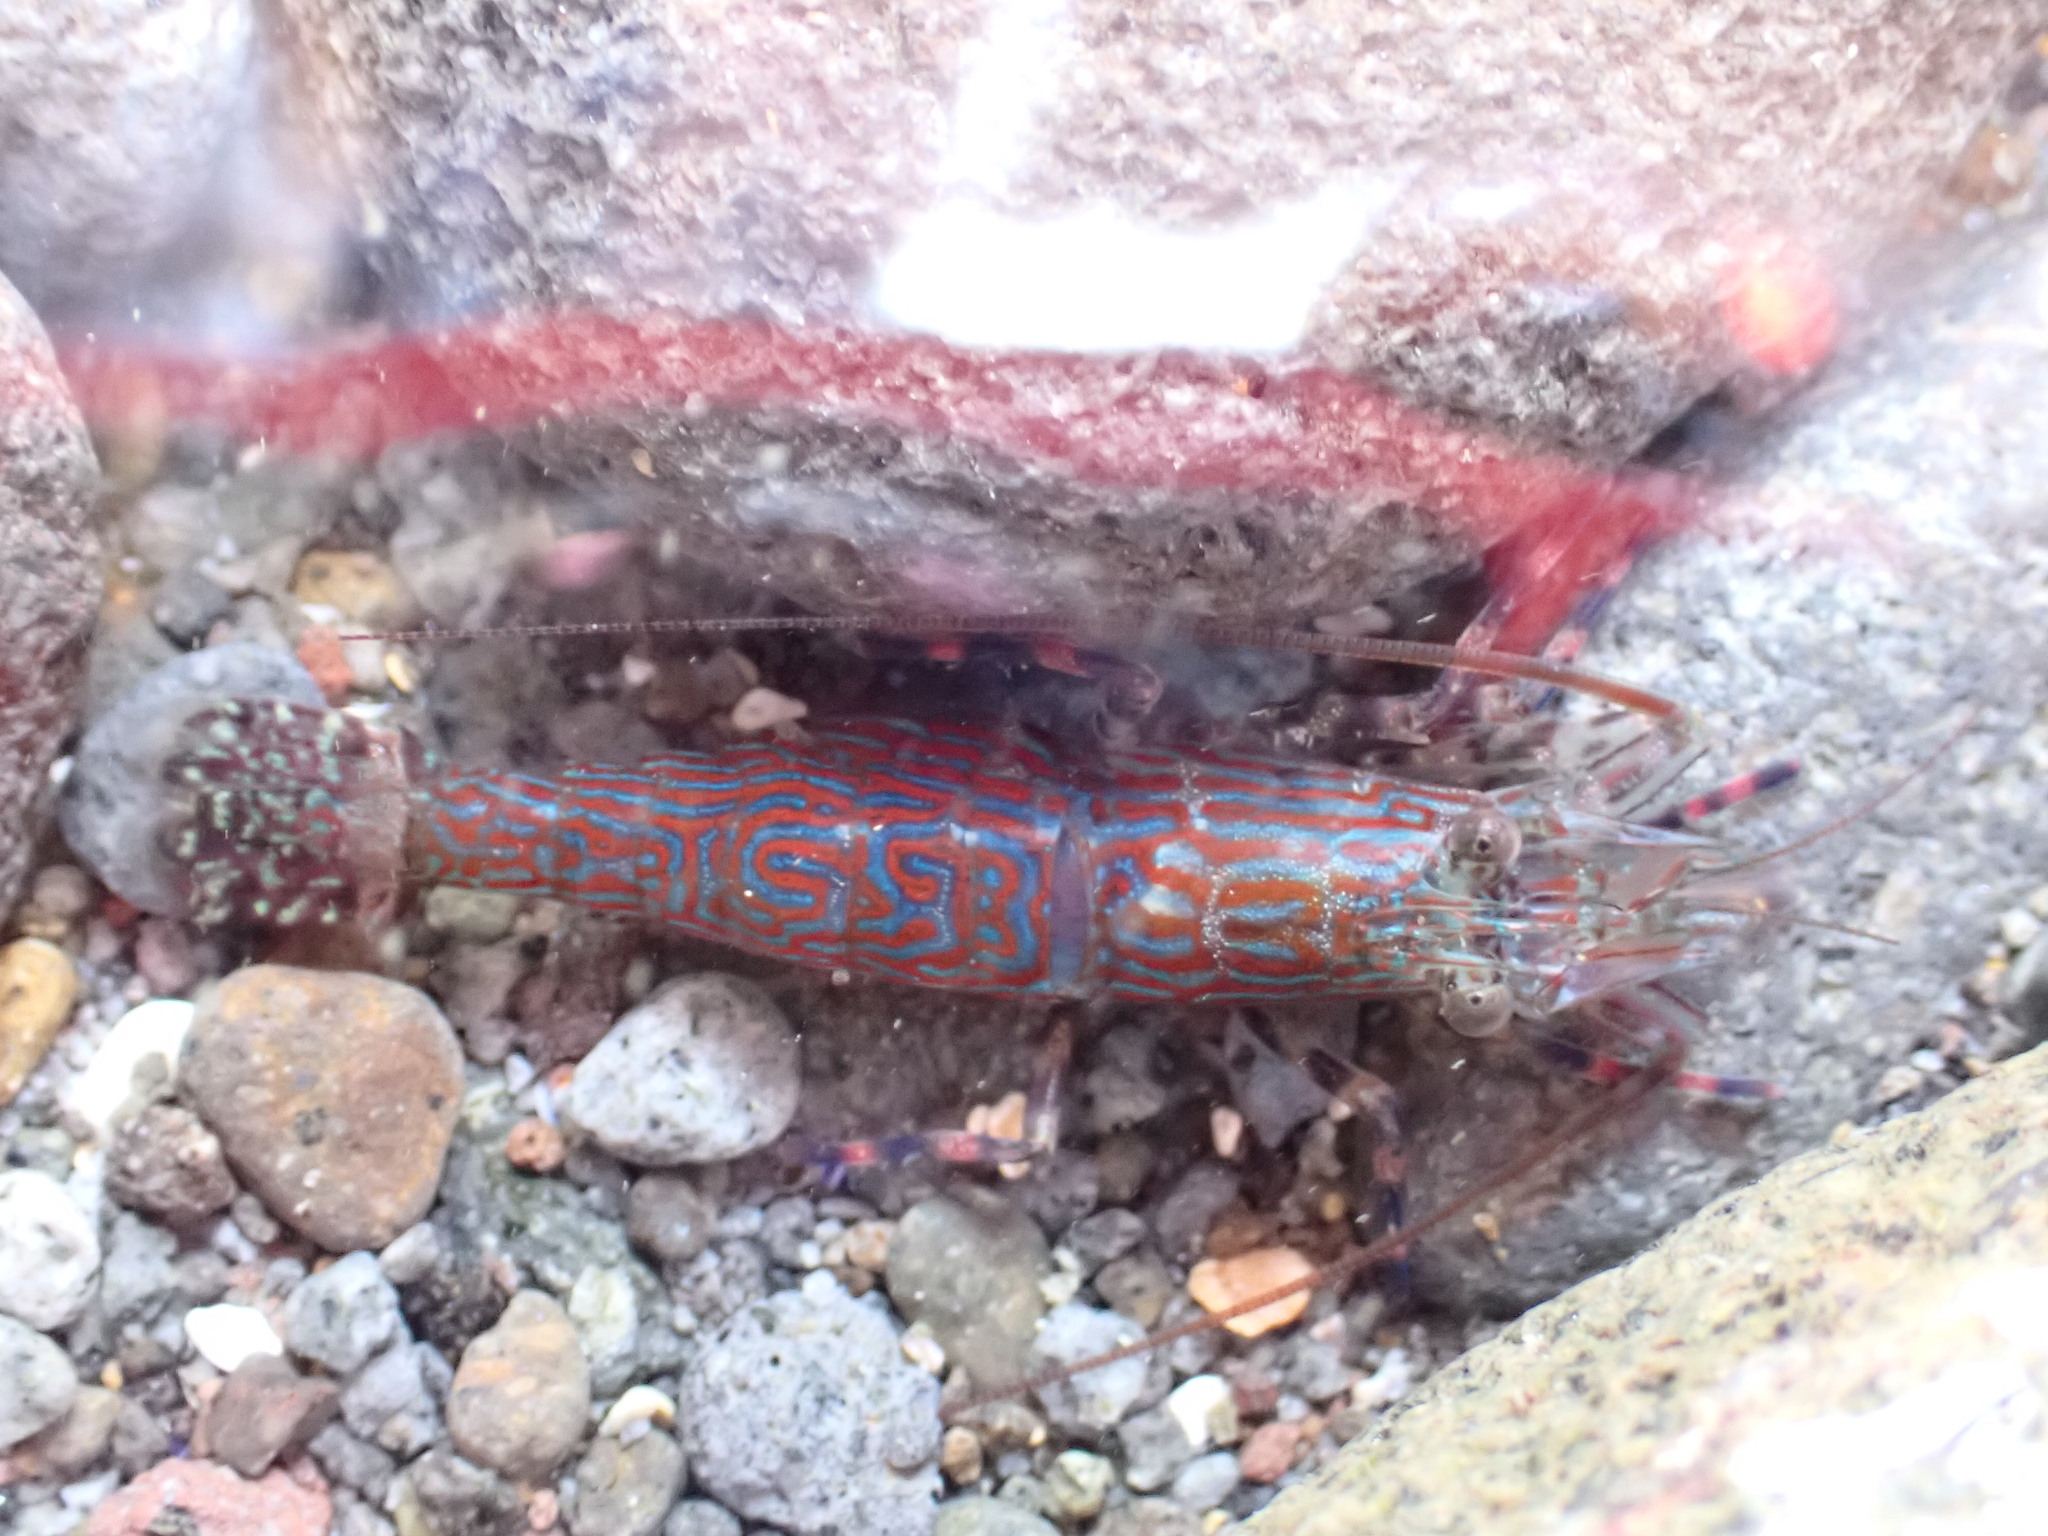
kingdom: Animalia
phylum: Arthropoda
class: Malacostraca
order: Decapoda
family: Hippolytidae
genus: Alope
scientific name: Alope spinifrons
